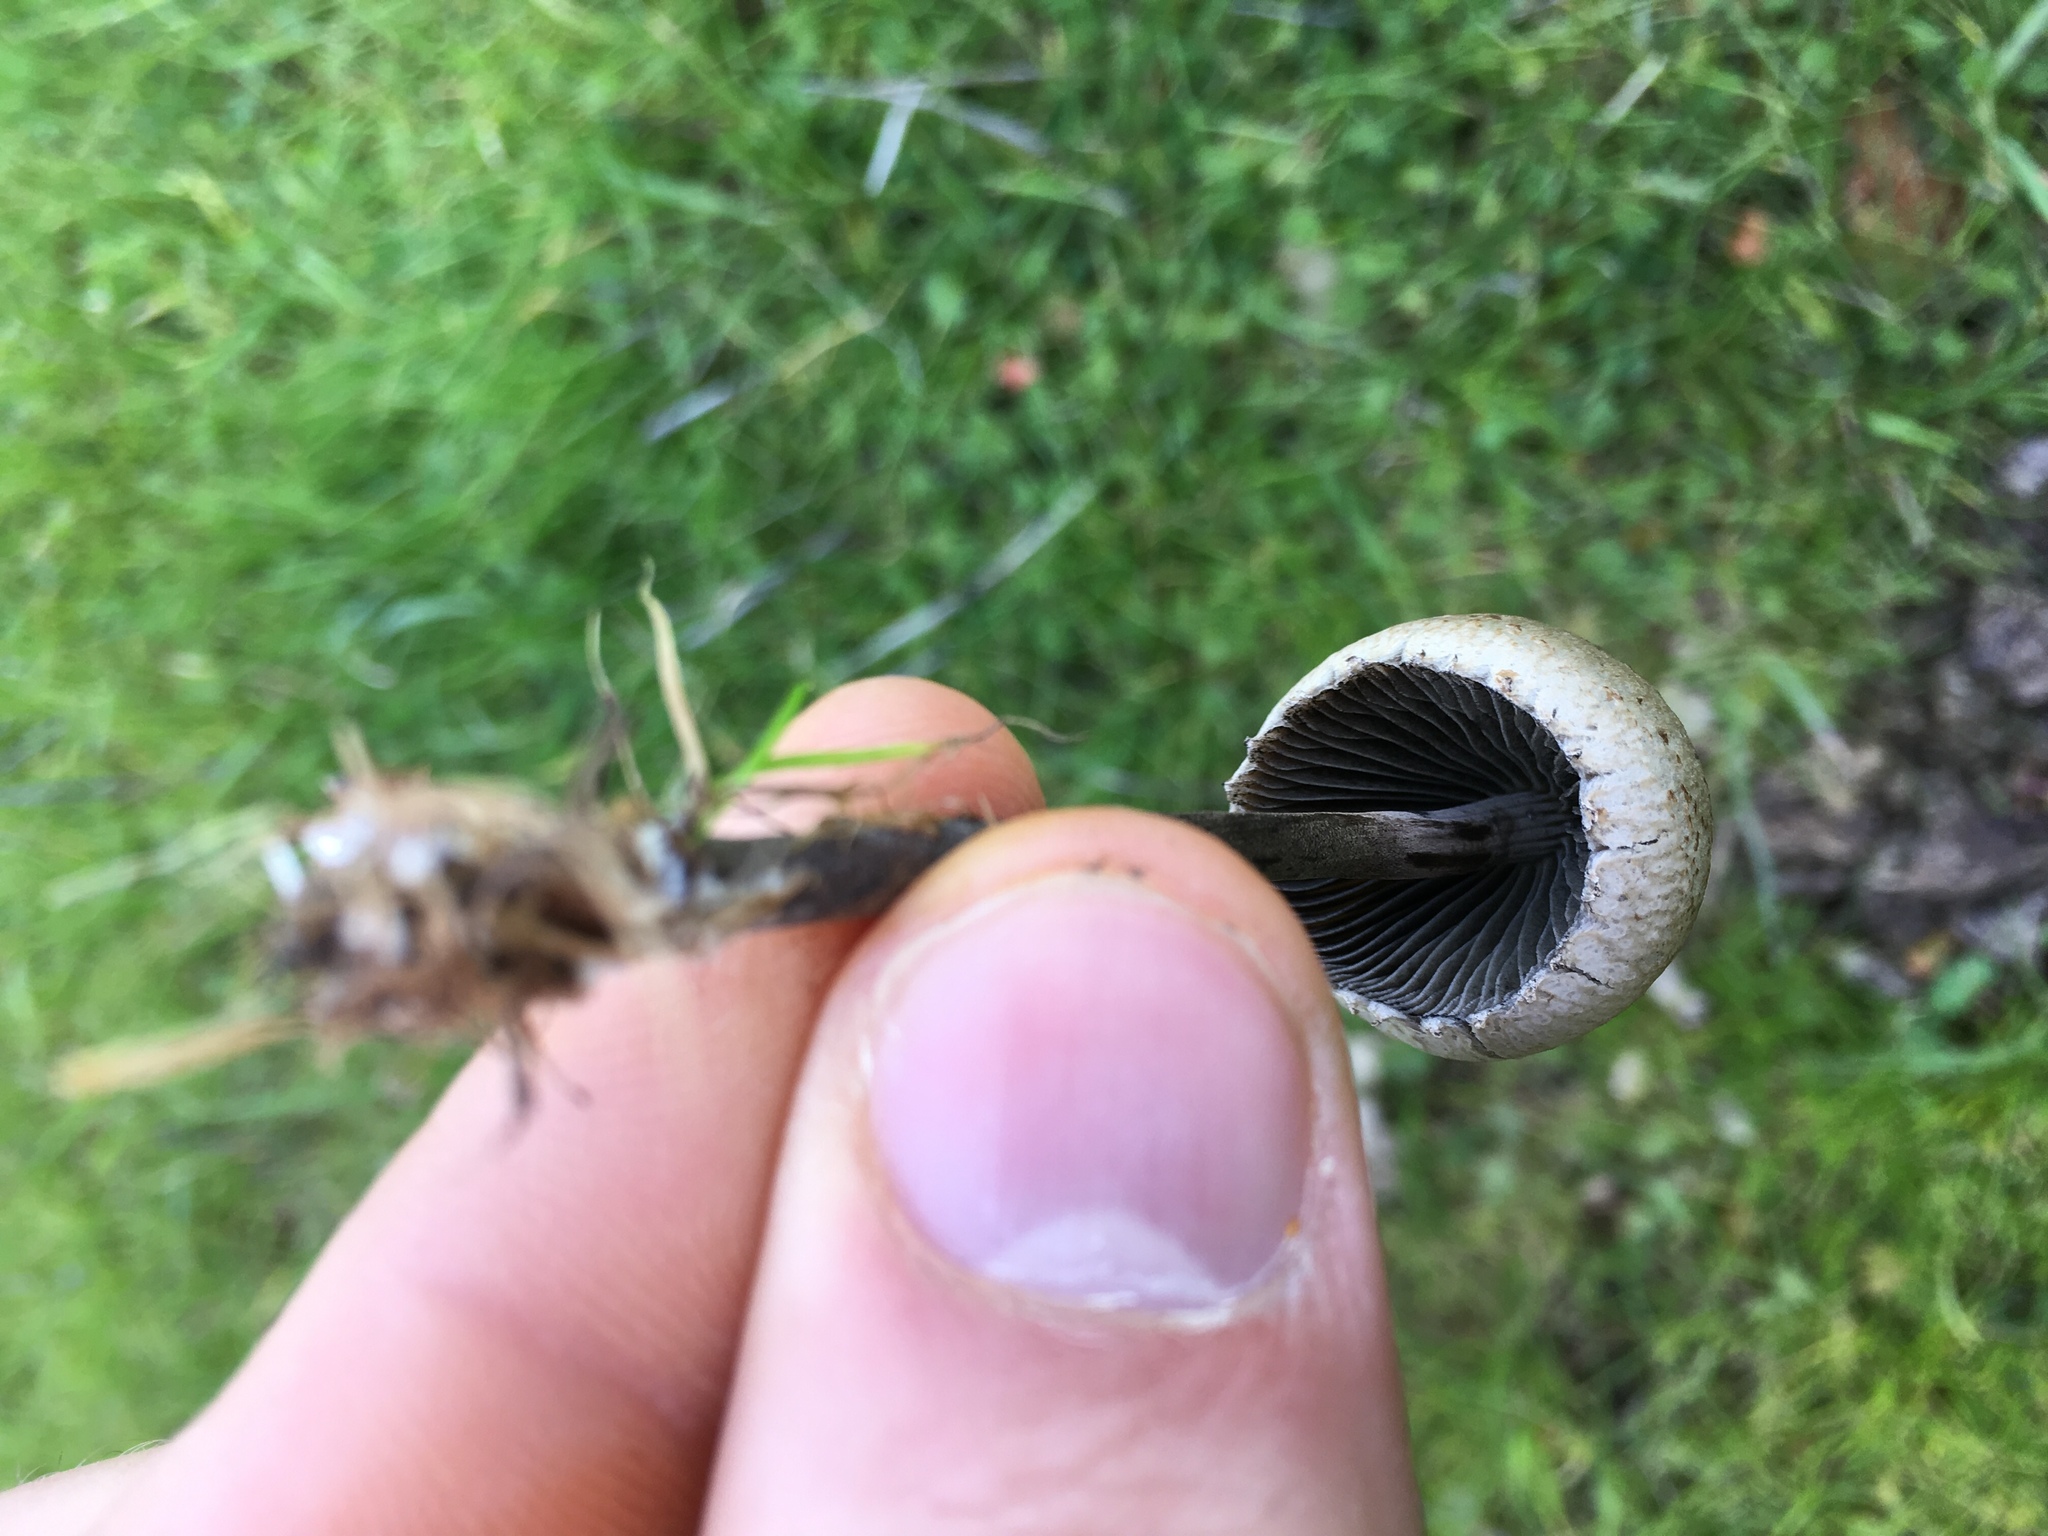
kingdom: Fungi
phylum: Basidiomycota
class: Agaricomycetes
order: Agaricales
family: Bolbitiaceae
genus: Panaeolus
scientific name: Panaeolus papilionaceus
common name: Petticoat mottlegill
